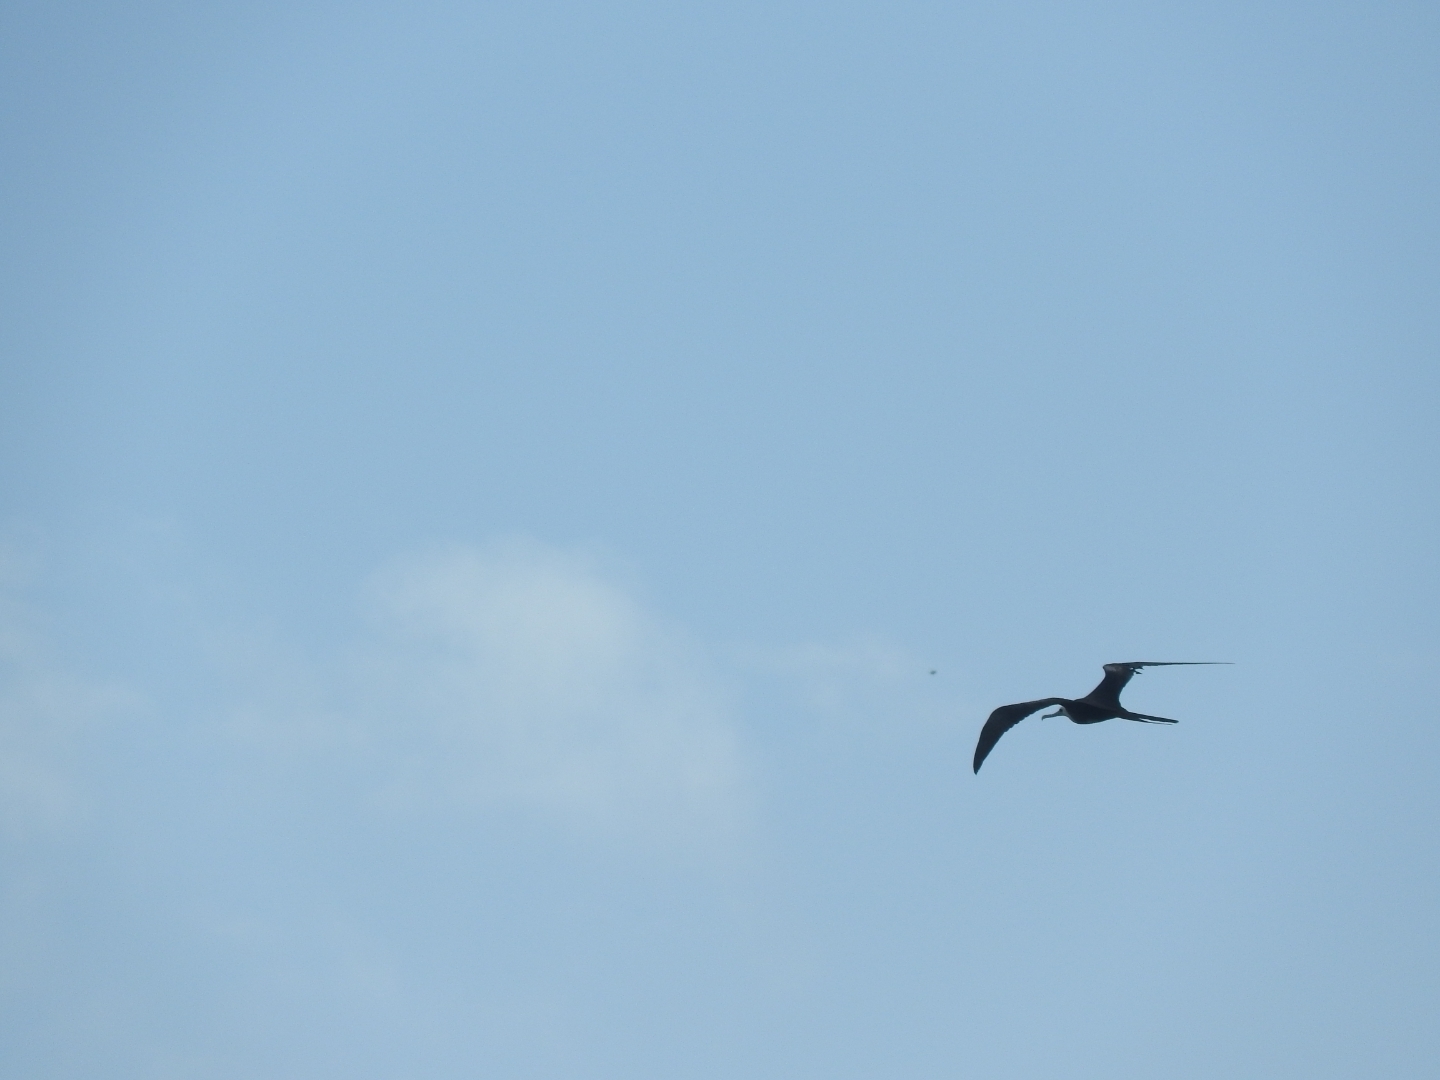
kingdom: Animalia
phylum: Chordata
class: Aves
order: Suliformes
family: Fregatidae
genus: Fregata
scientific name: Fregata magnificens
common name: Magnificent frigatebird
